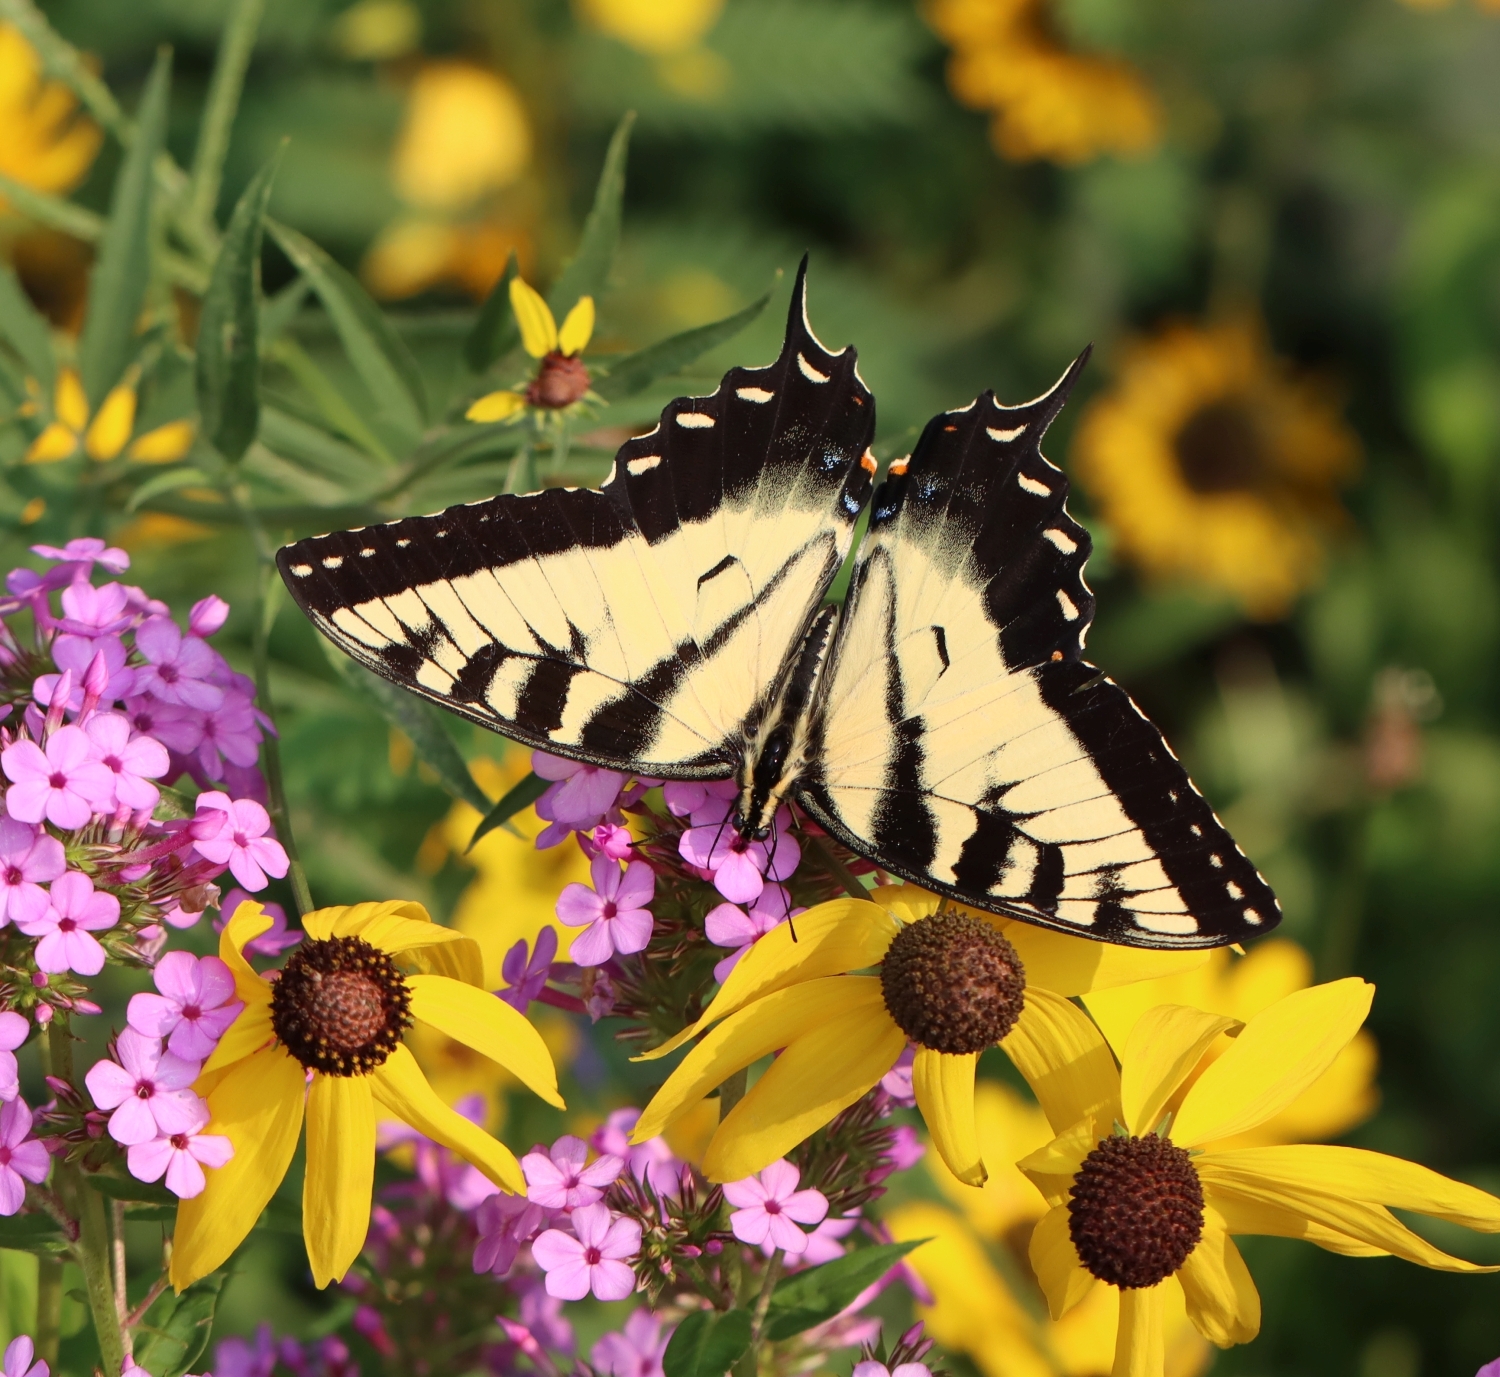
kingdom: Animalia
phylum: Arthropoda
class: Insecta
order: Lepidoptera
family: Papilionidae
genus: Papilio
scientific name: Papilio glaucus
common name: Tiger swallowtail
